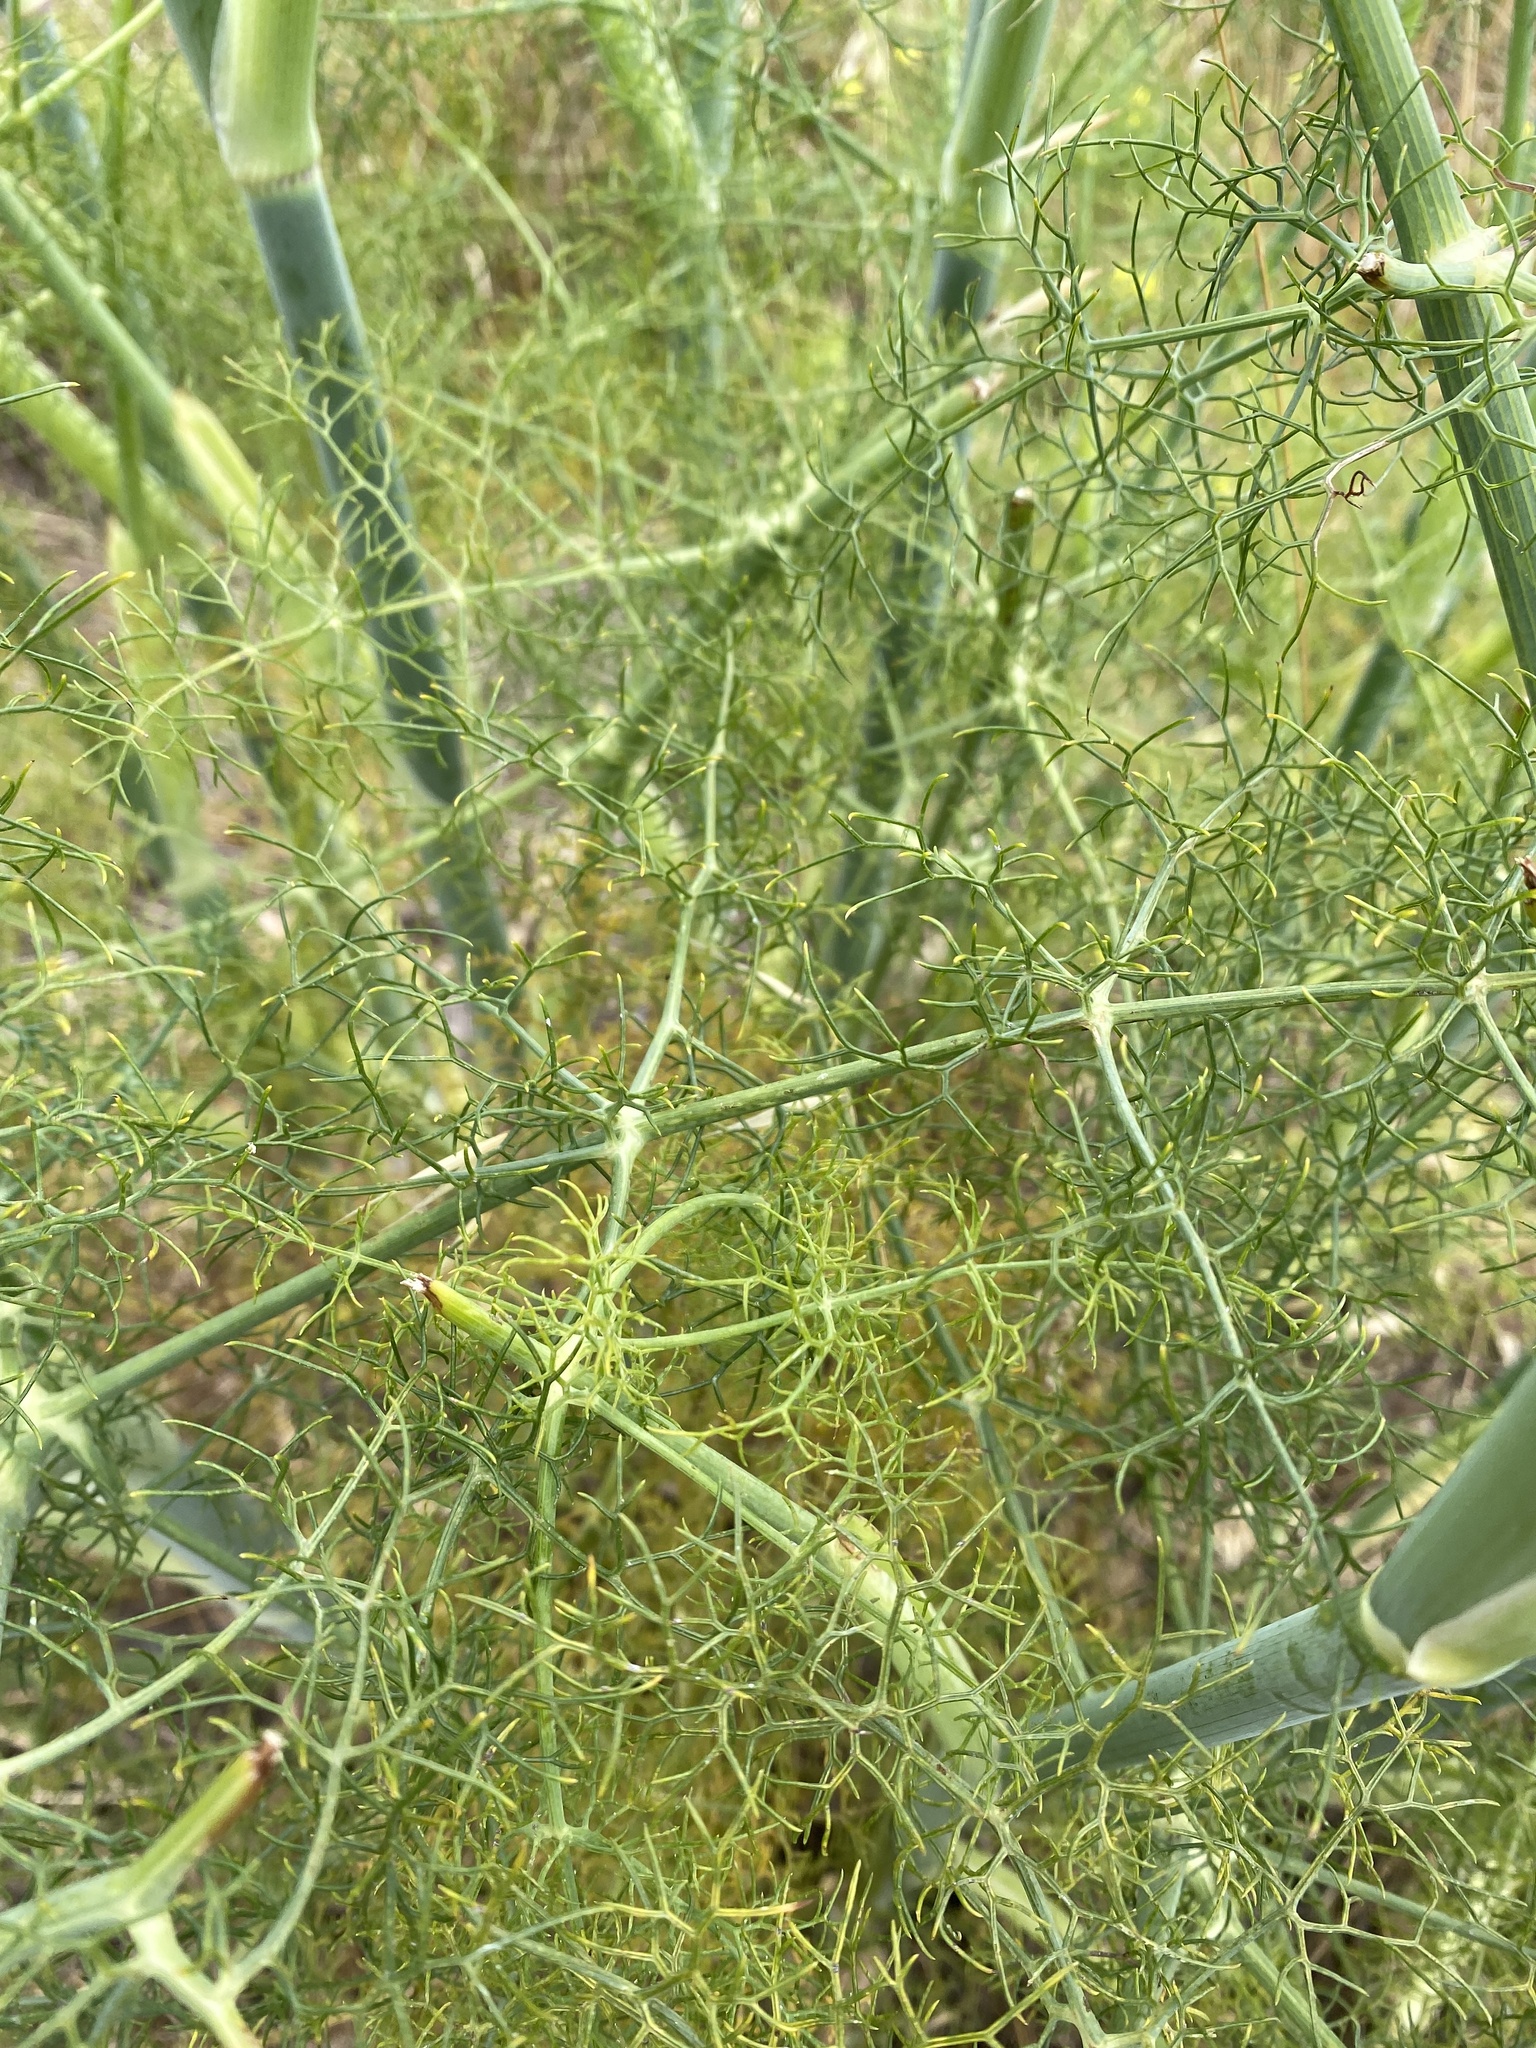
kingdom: Plantae
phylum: Tracheophyta
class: Magnoliopsida
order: Apiales
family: Apiaceae
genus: Foeniculum
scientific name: Foeniculum vulgare
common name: Fennel
